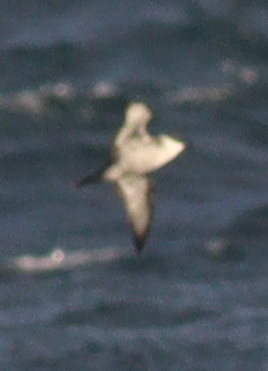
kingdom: Animalia
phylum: Chordata
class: Aves
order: Procellariiformes
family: Procellariidae
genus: Puffinus
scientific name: Puffinus puffinus
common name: Manx shearwater
